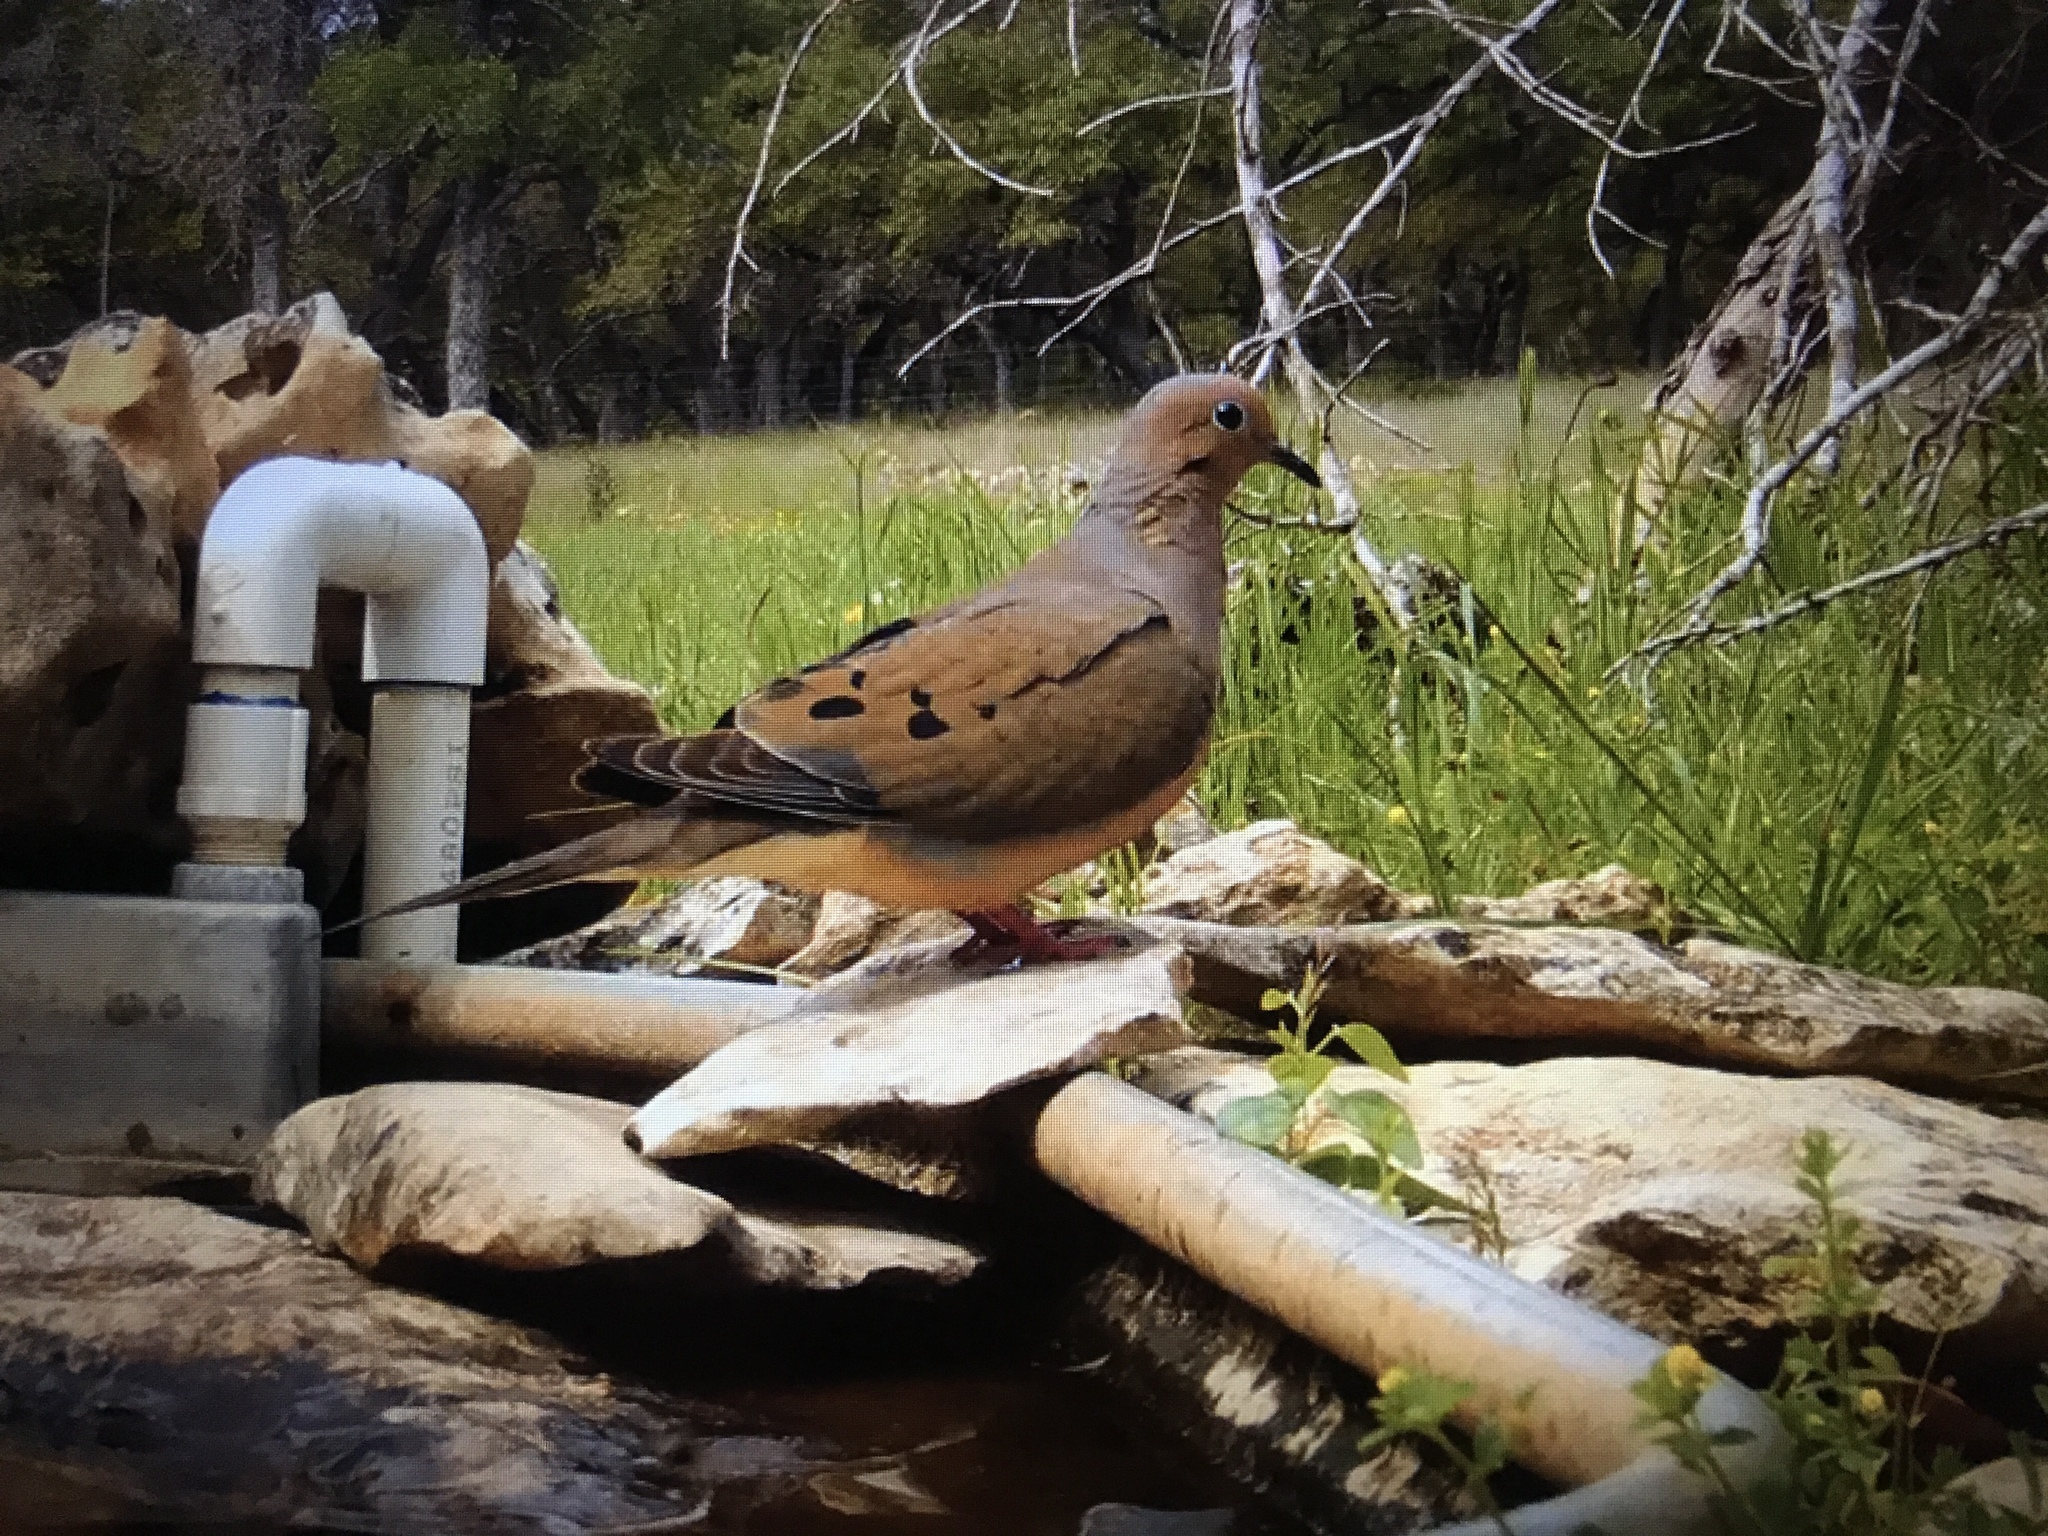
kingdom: Animalia
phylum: Chordata
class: Aves
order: Columbiformes
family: Columbidae
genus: Zenaida
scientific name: Zenaida macroura
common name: Mourning dove
